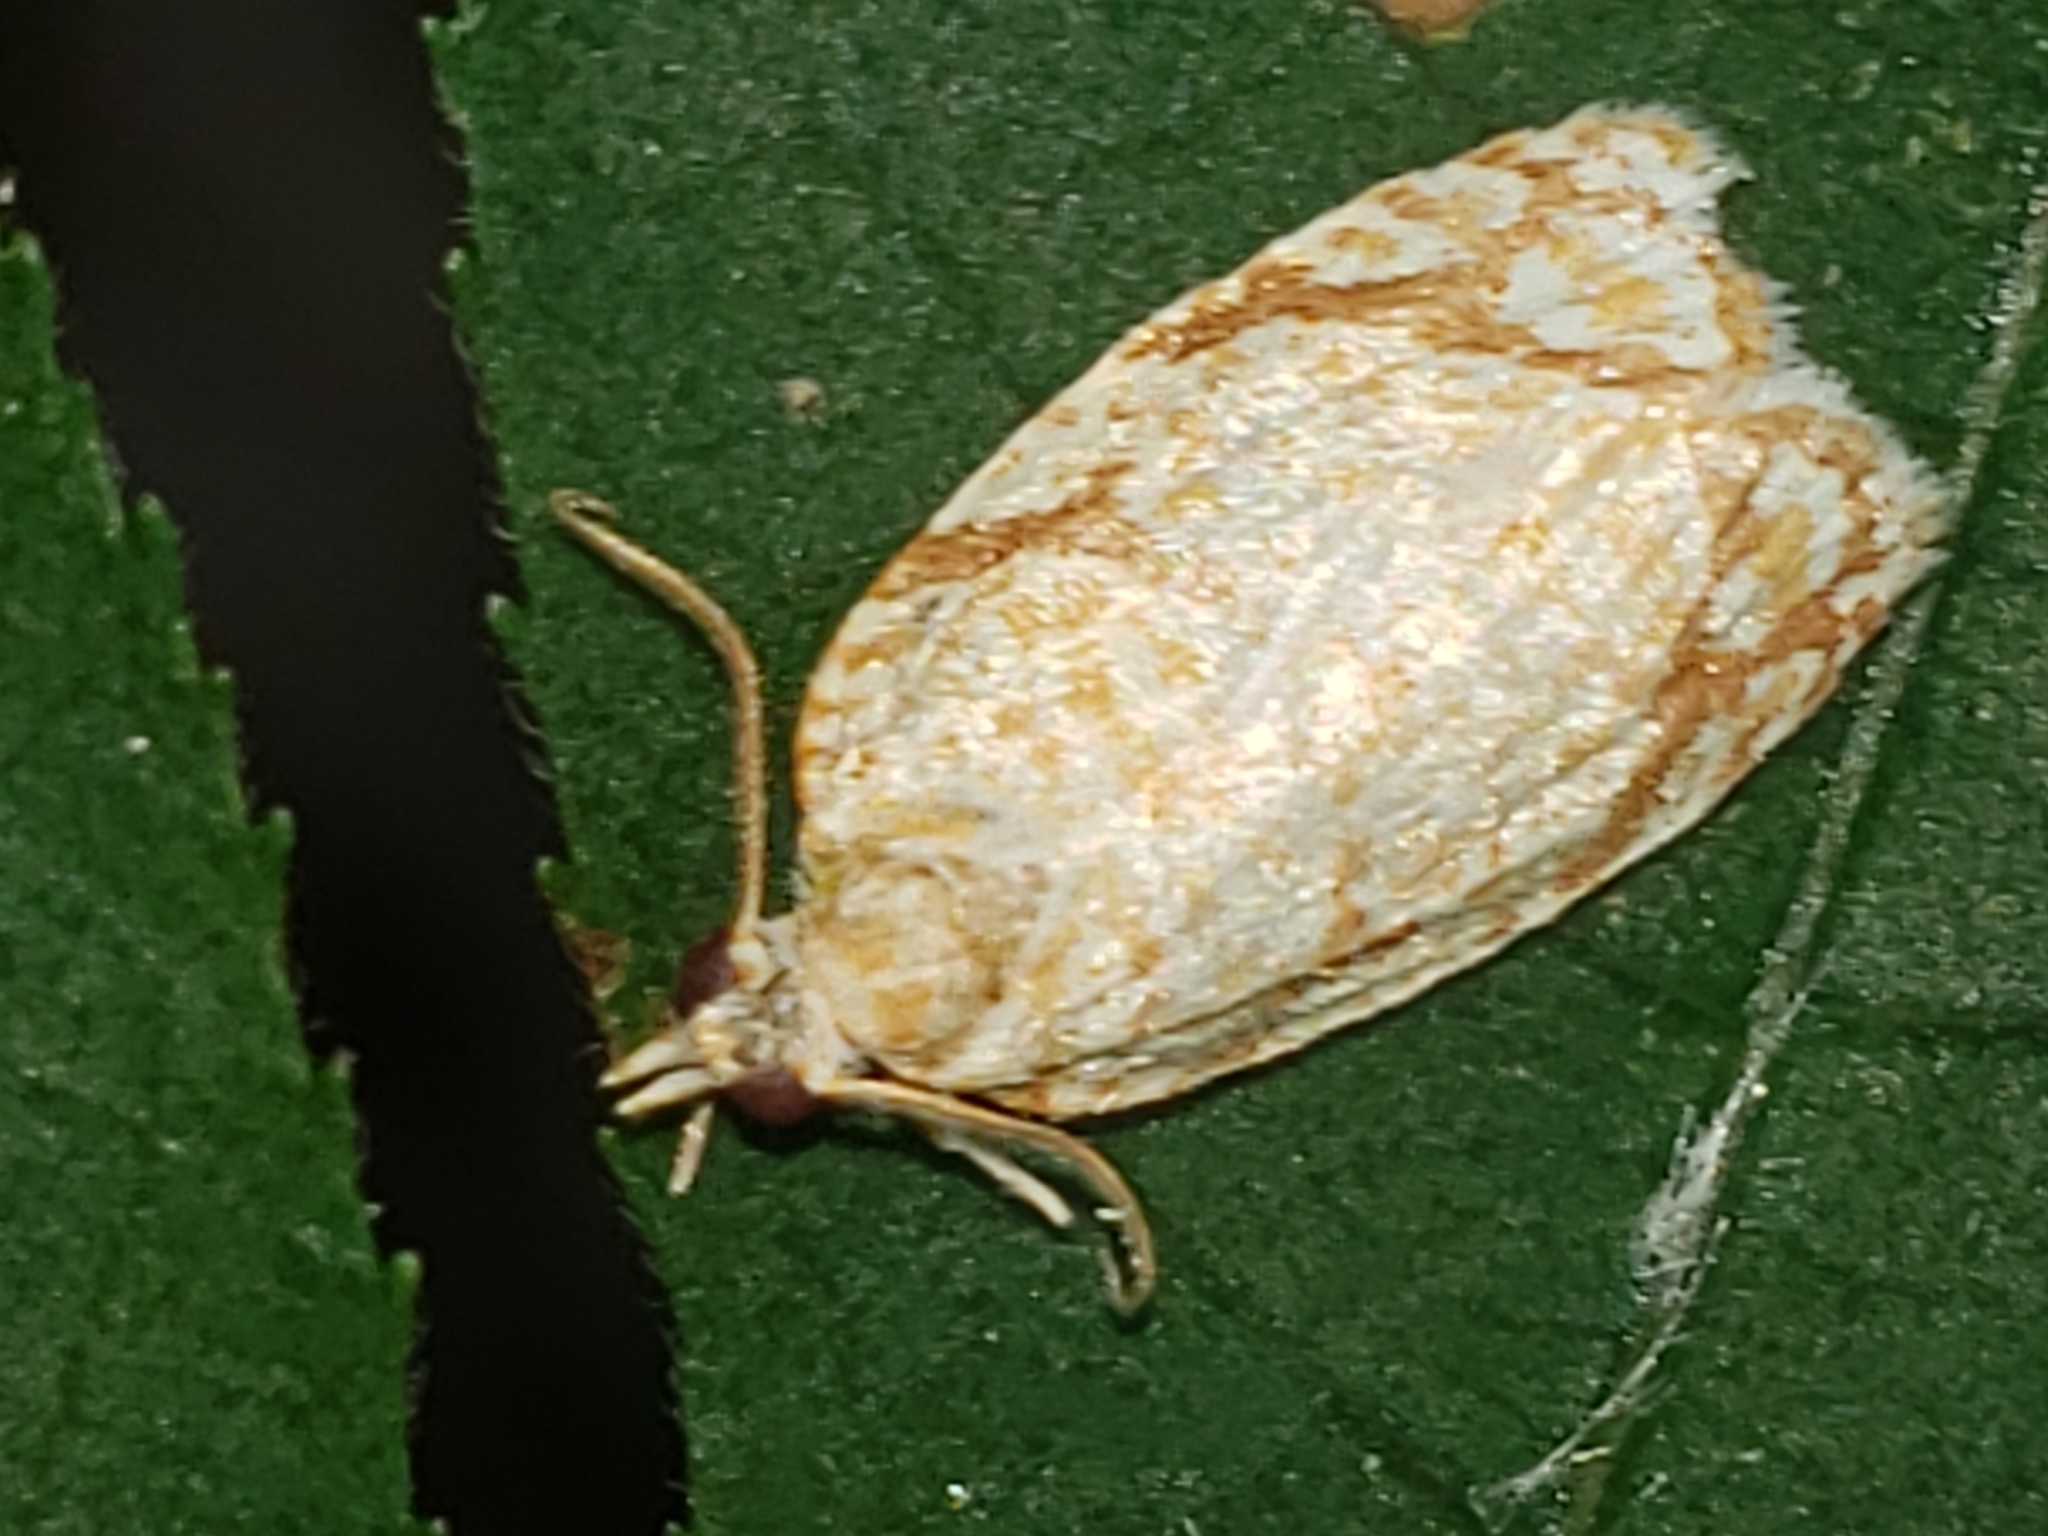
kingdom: Animalia
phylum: Arthropoda
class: Insecta
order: Lepidoptera
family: Tortricidae
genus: Argyrotaenia
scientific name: Argyrotaenia quercifoliana
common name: Yellow-winged oak leafroller moth
